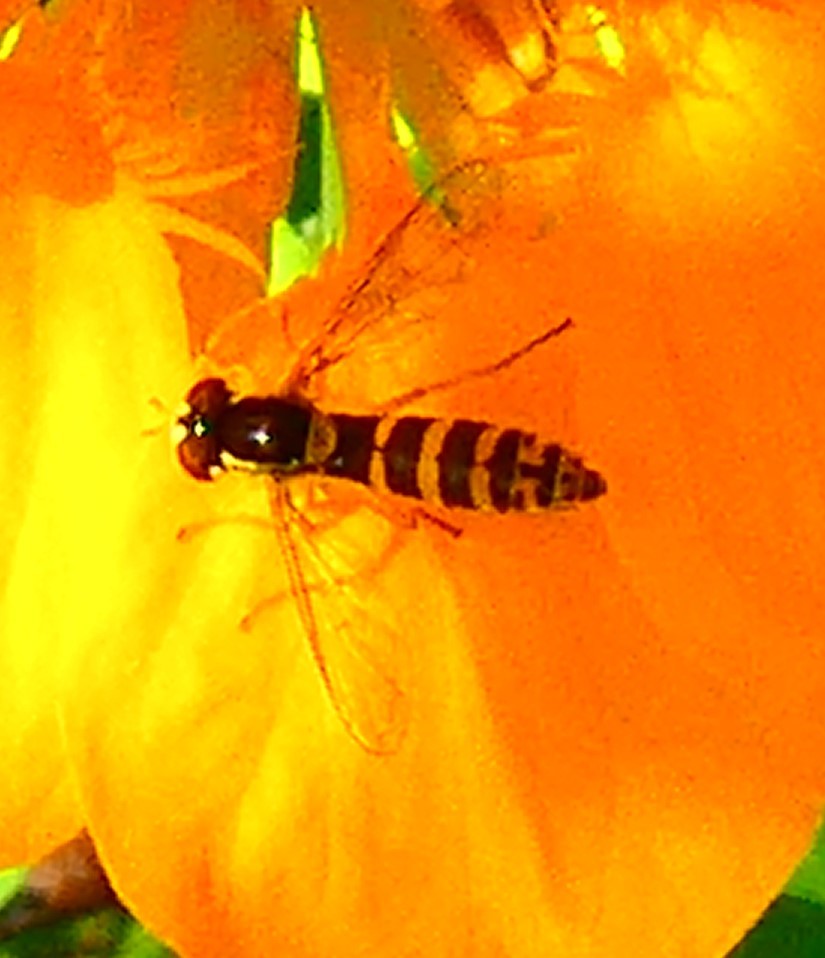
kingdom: Animalia
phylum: Arthropoda
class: Insecta
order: Diptera
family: Syrphidae
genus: Sphaerophoria
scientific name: Sphaerophoria
